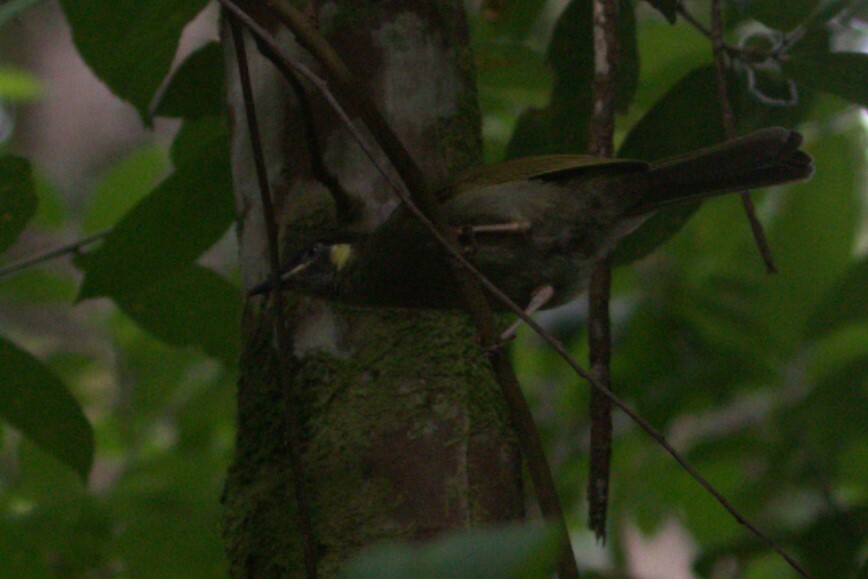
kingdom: Animalia
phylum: Chordata
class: Aves
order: Passeriformes
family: Meliphagidae
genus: Meliphaga
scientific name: Meliphaga lewinii
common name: Lewin's honeyeater
